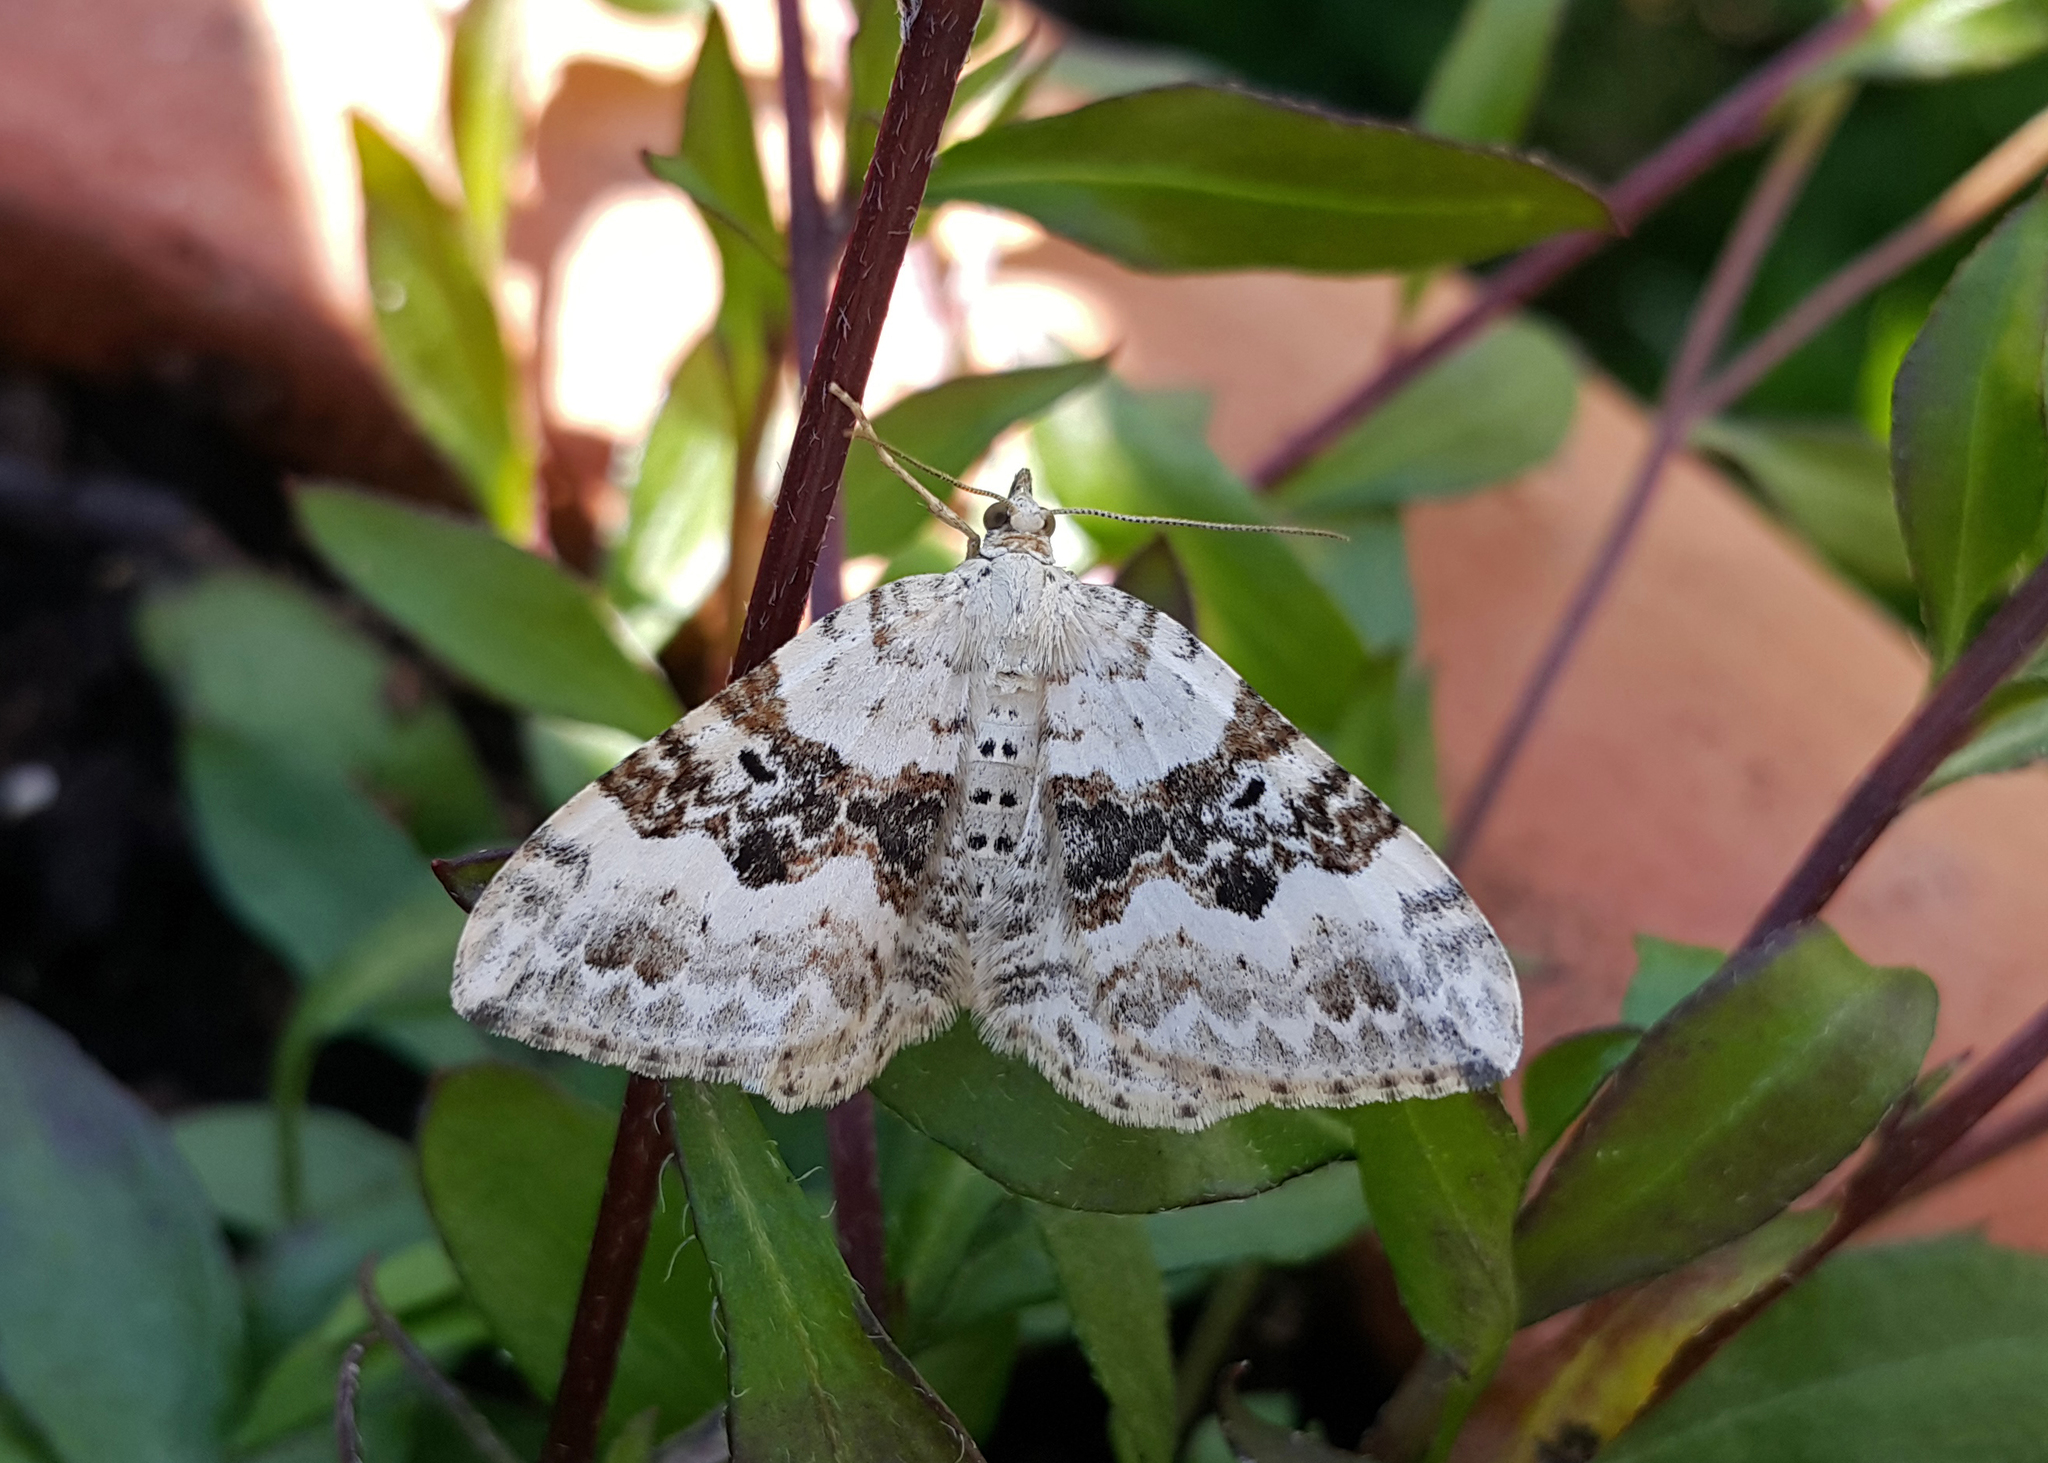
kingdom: Animalia
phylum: Arthropoda
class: Insecta
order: Lepidoptera
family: Geometridae
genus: Xanthorhoe
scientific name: Xanthorhoe montanata
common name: Silver-ground carpet
